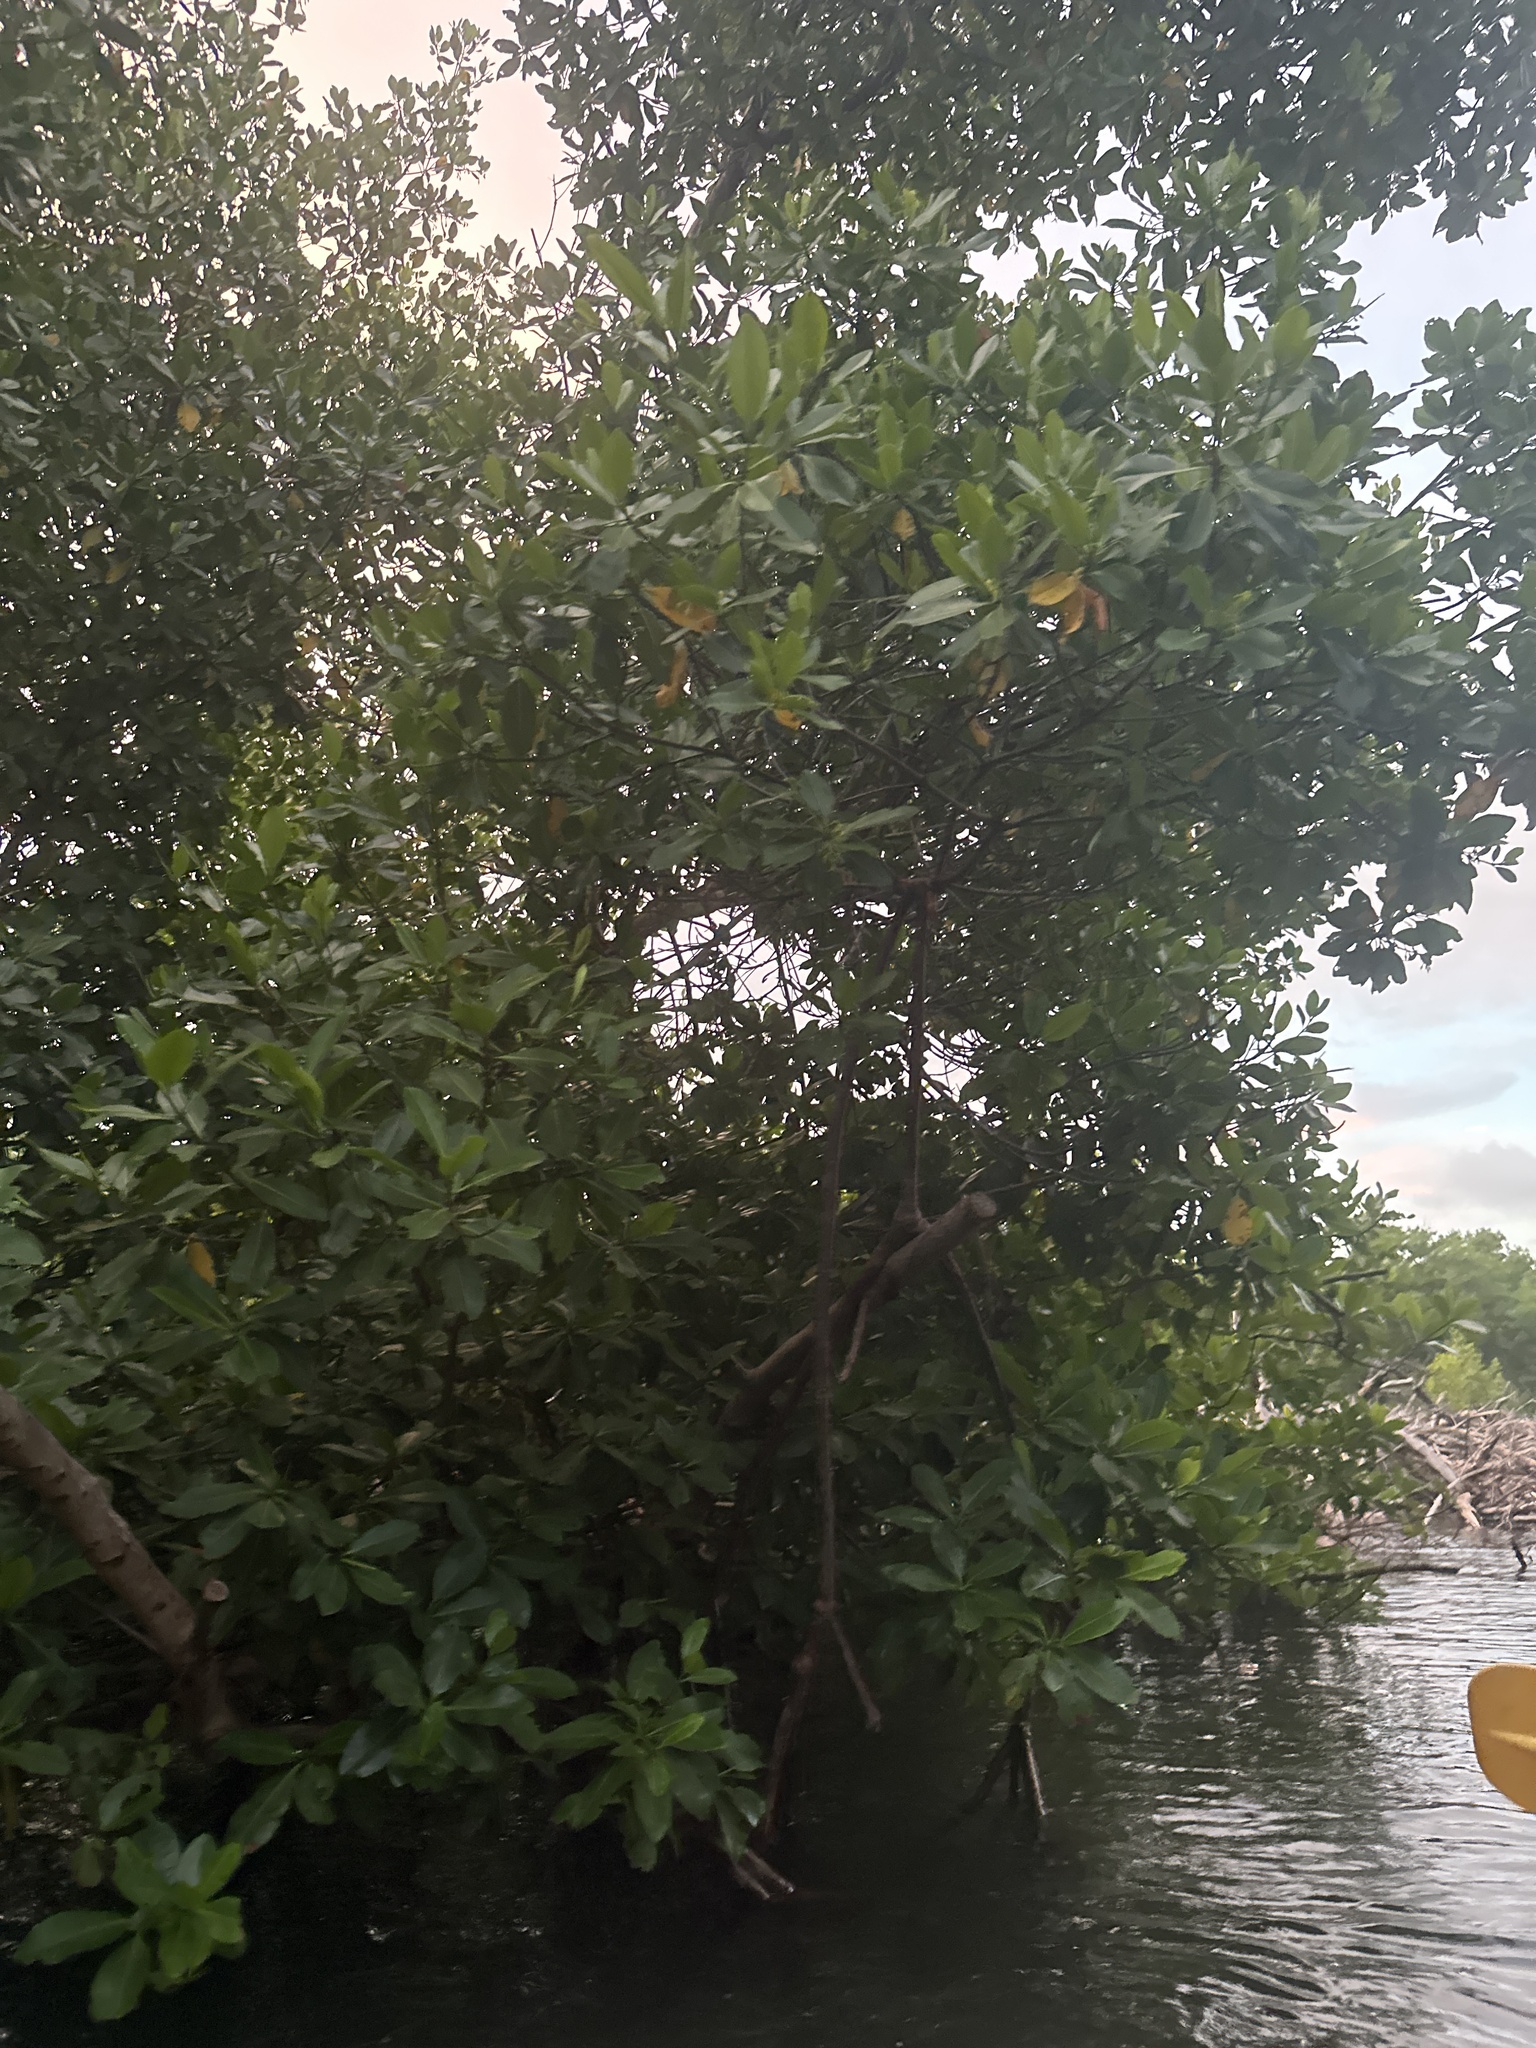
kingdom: Plantae
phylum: Tracheophyta
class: Magnoliopsida
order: Malpighiales
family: Rhizophoraceae
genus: Rhizophora
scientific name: Rhizophora mangle
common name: Red mangrove
